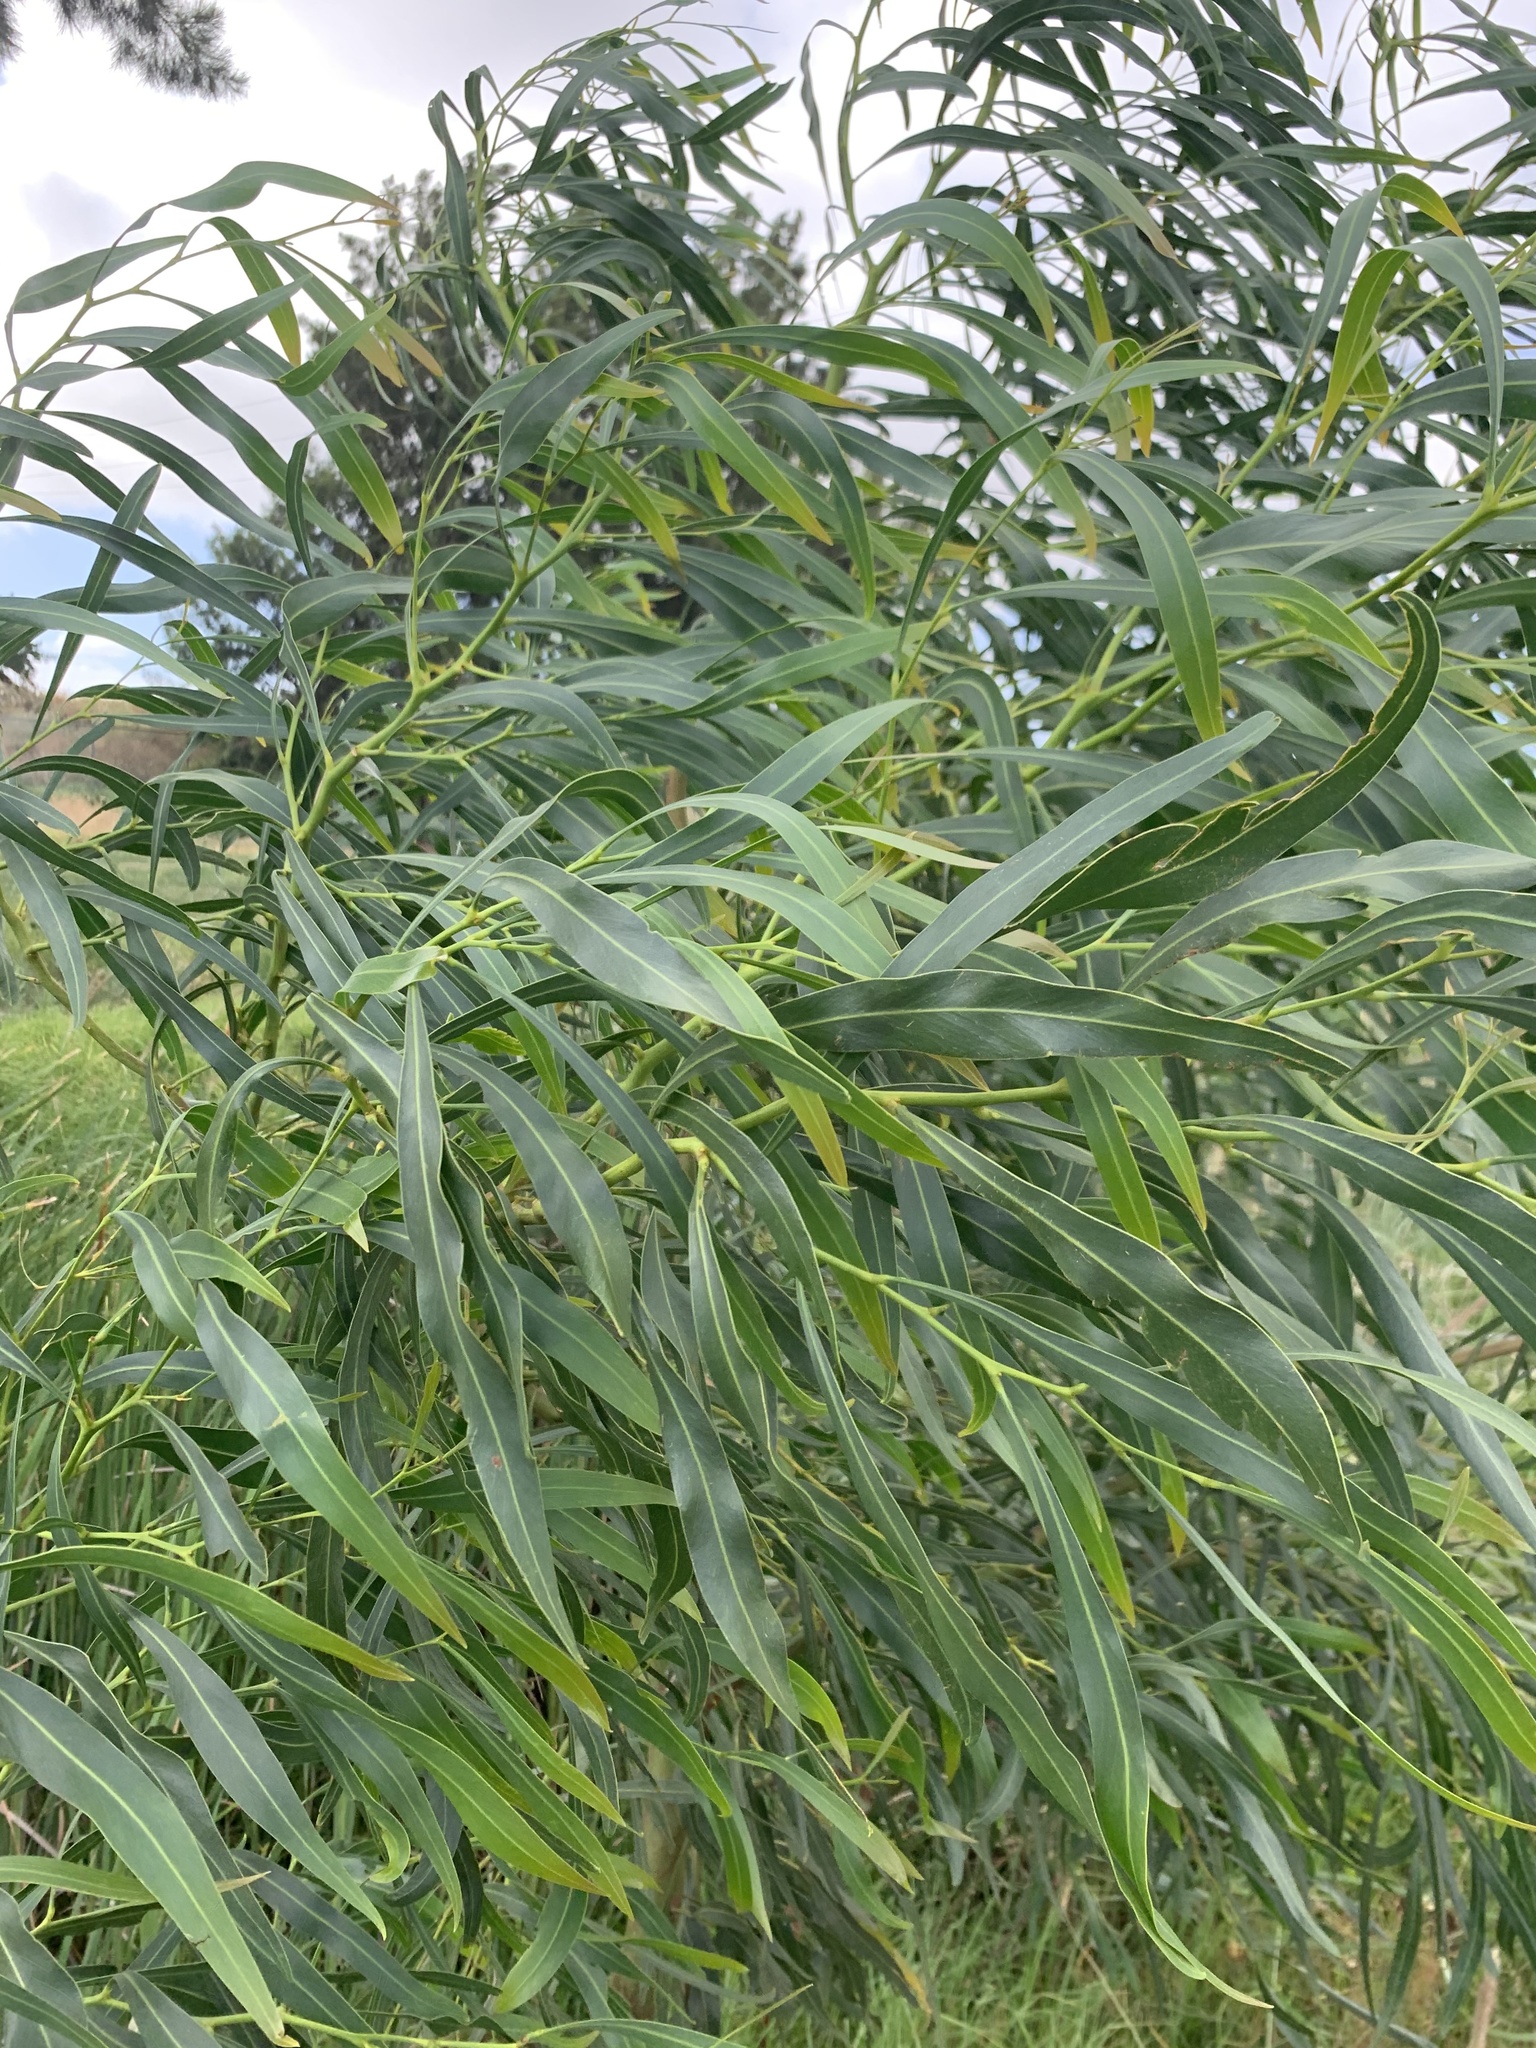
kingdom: Plantae
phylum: Tracheophyta
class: Magnoliopsida
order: Fabales
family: Fabaceae
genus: Acacia
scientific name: Acacia saligna
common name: Orange wattle
